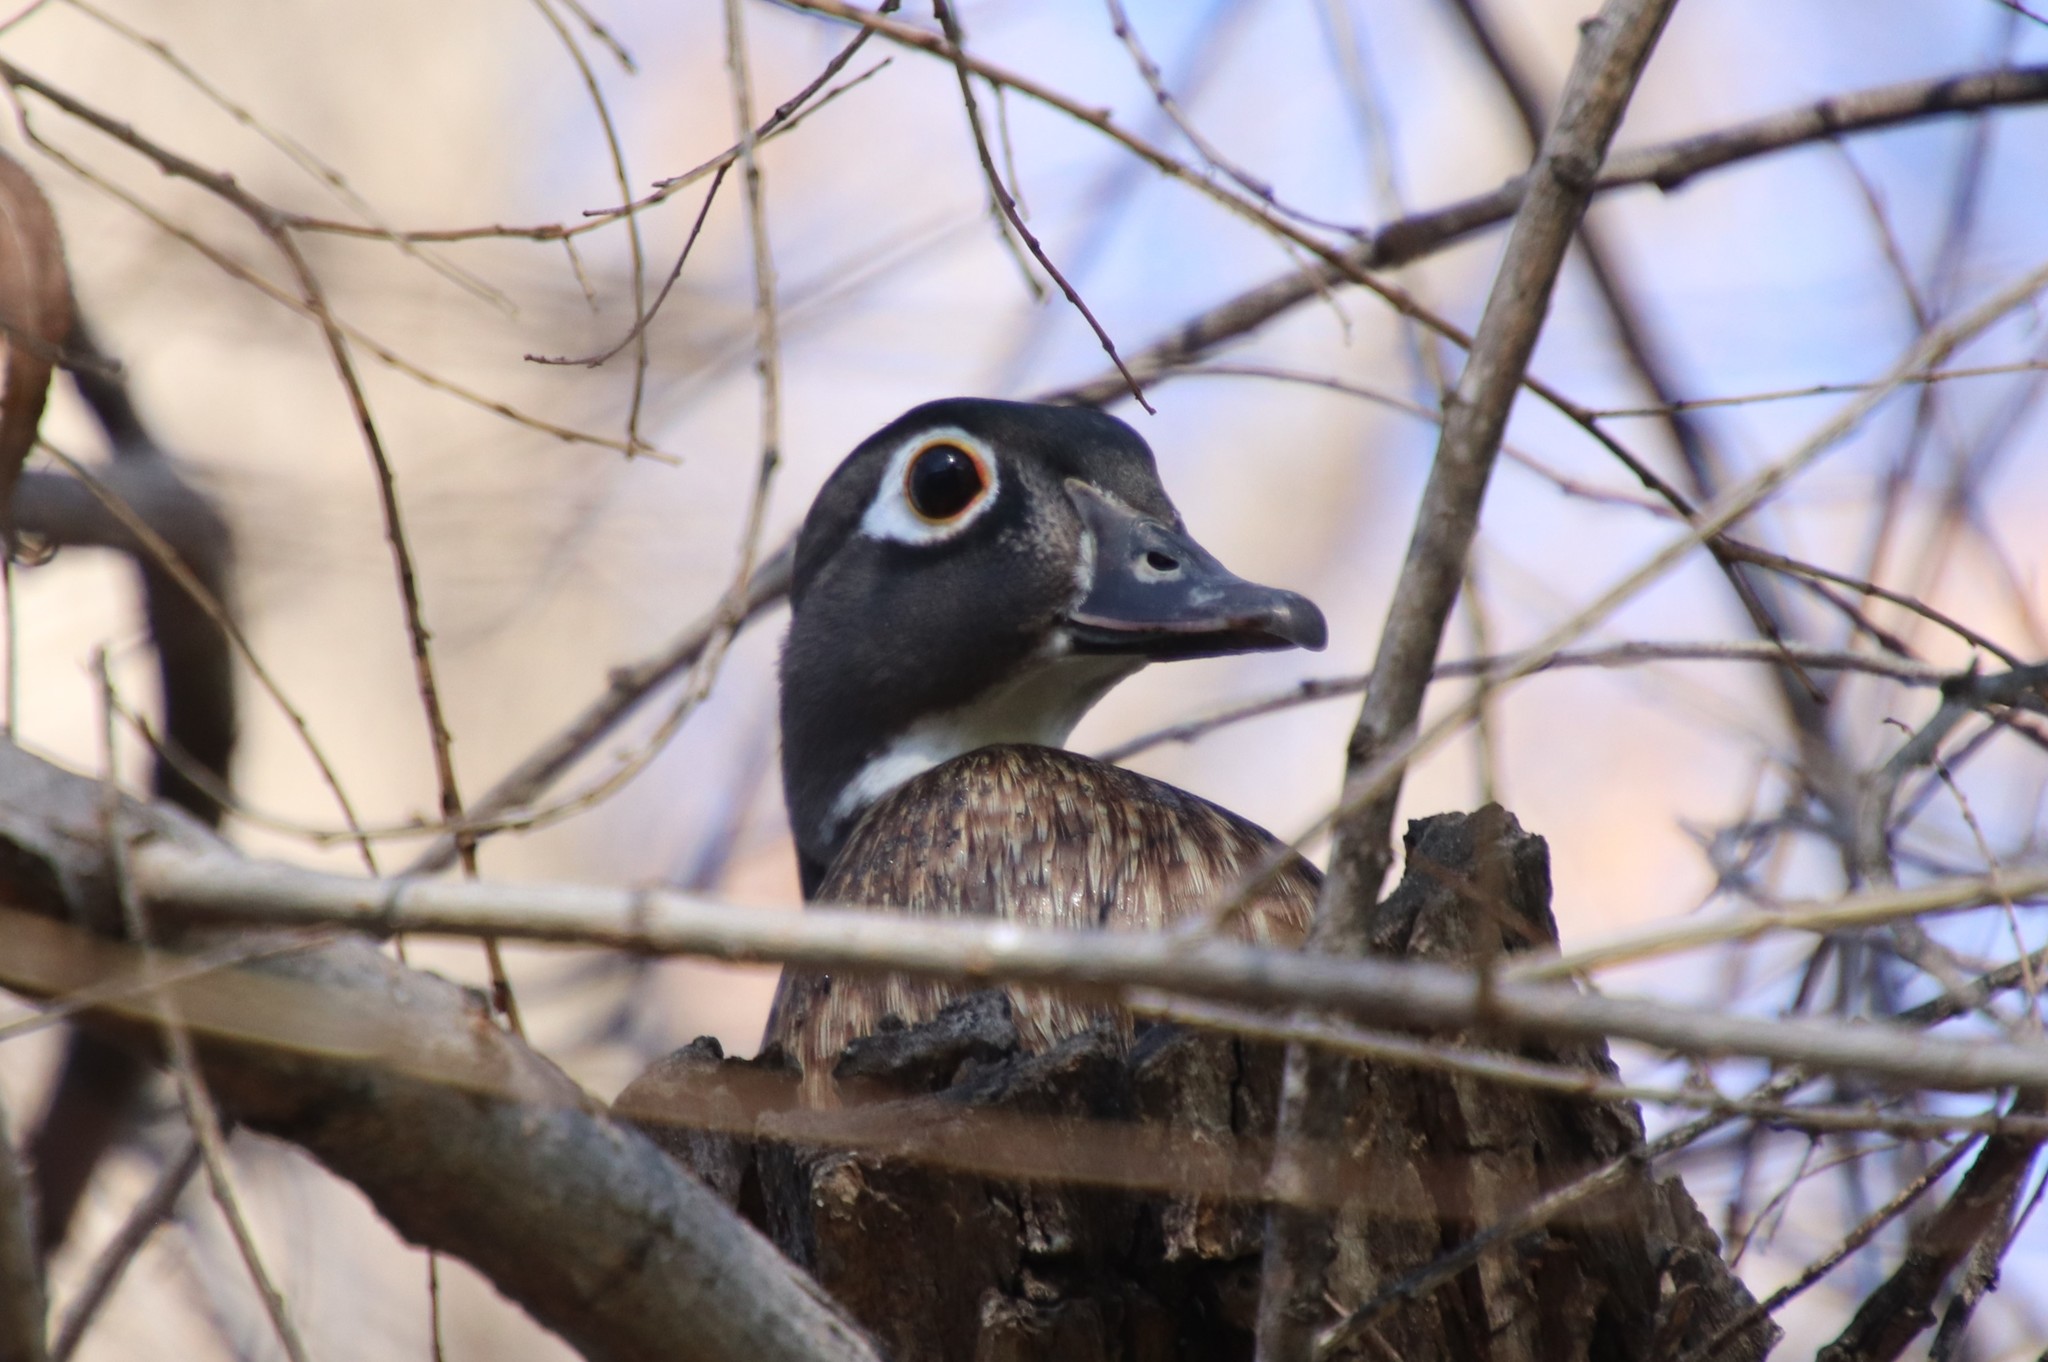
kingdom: Animalia
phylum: Chordata
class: Aves
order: Anseriformes
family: Anatidae
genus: Aix
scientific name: Aix sponsa
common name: Wood duck
